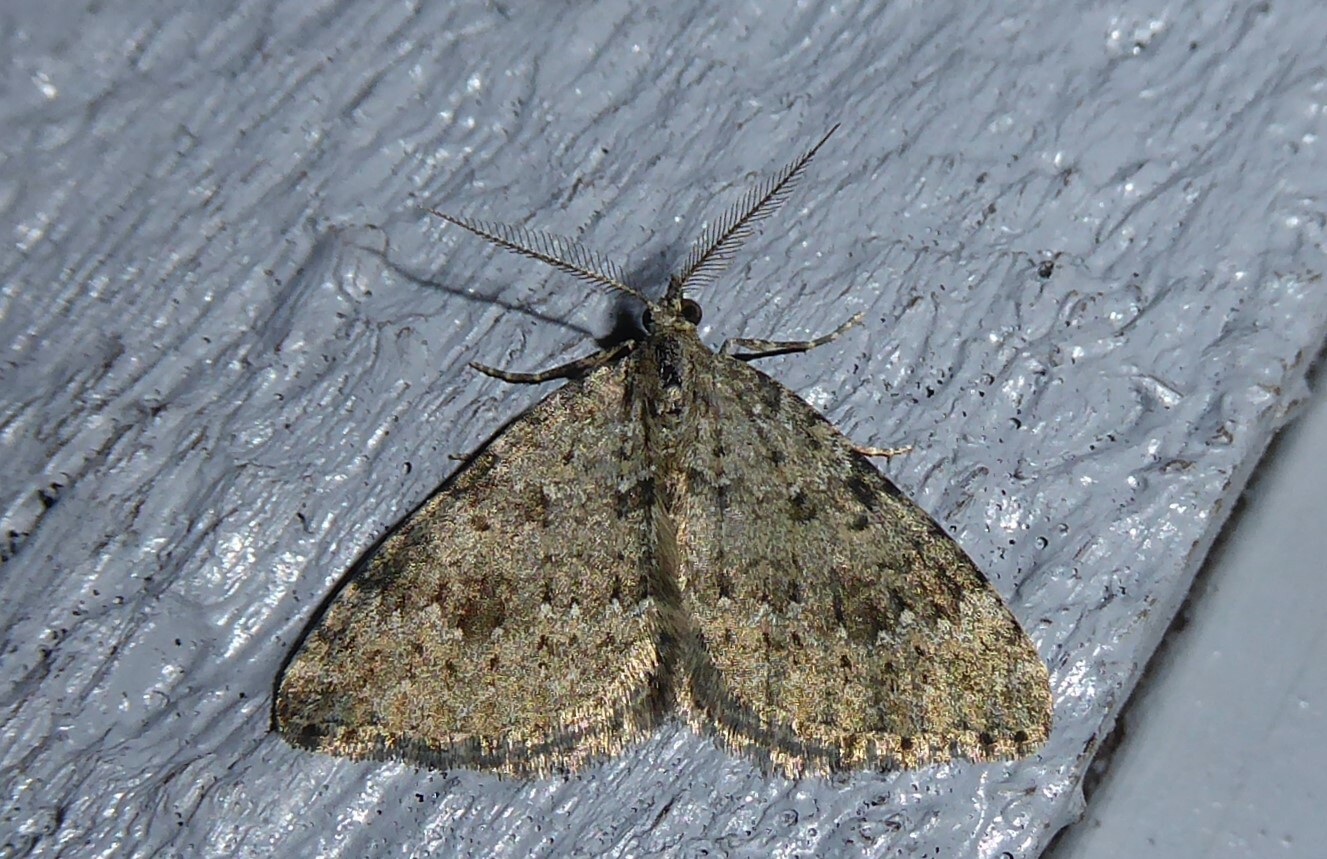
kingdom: Animalia
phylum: Arthropoda
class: Insecta
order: Lepidoptera
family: Geometridae
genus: Helastia
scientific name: Helastia corcularia
